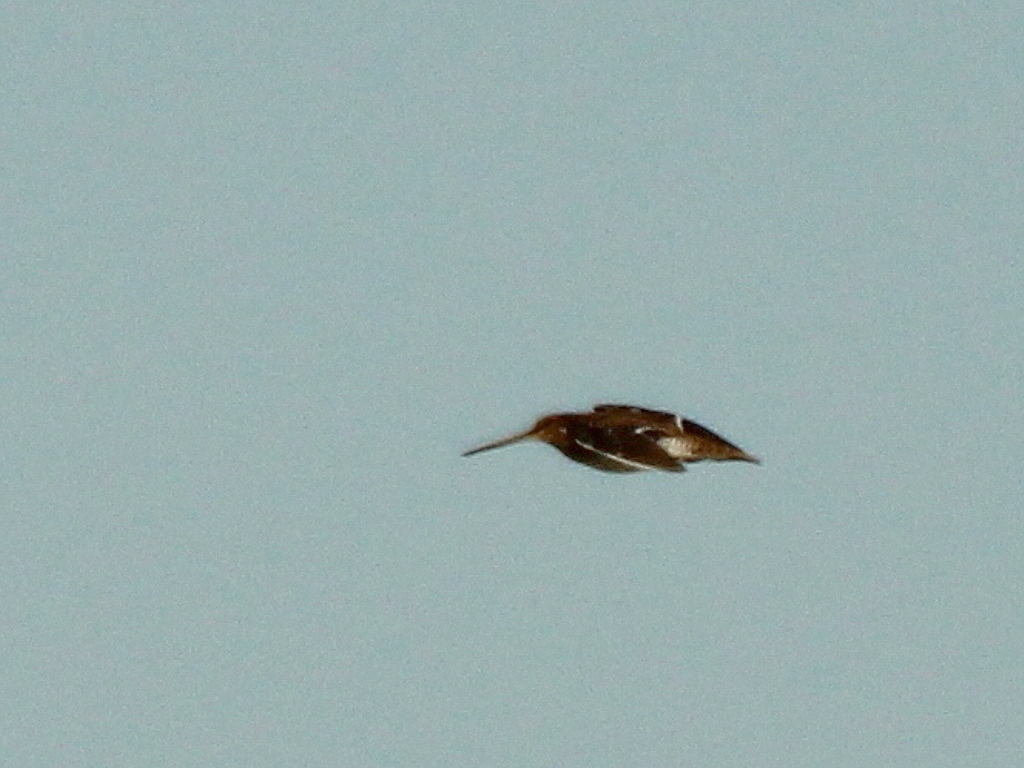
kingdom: Animalia
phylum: Chordata
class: Aves
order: Charadriiformes
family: Scolopacidae
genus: Gallinago
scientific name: Gallinago gallinago
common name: Common snipe
